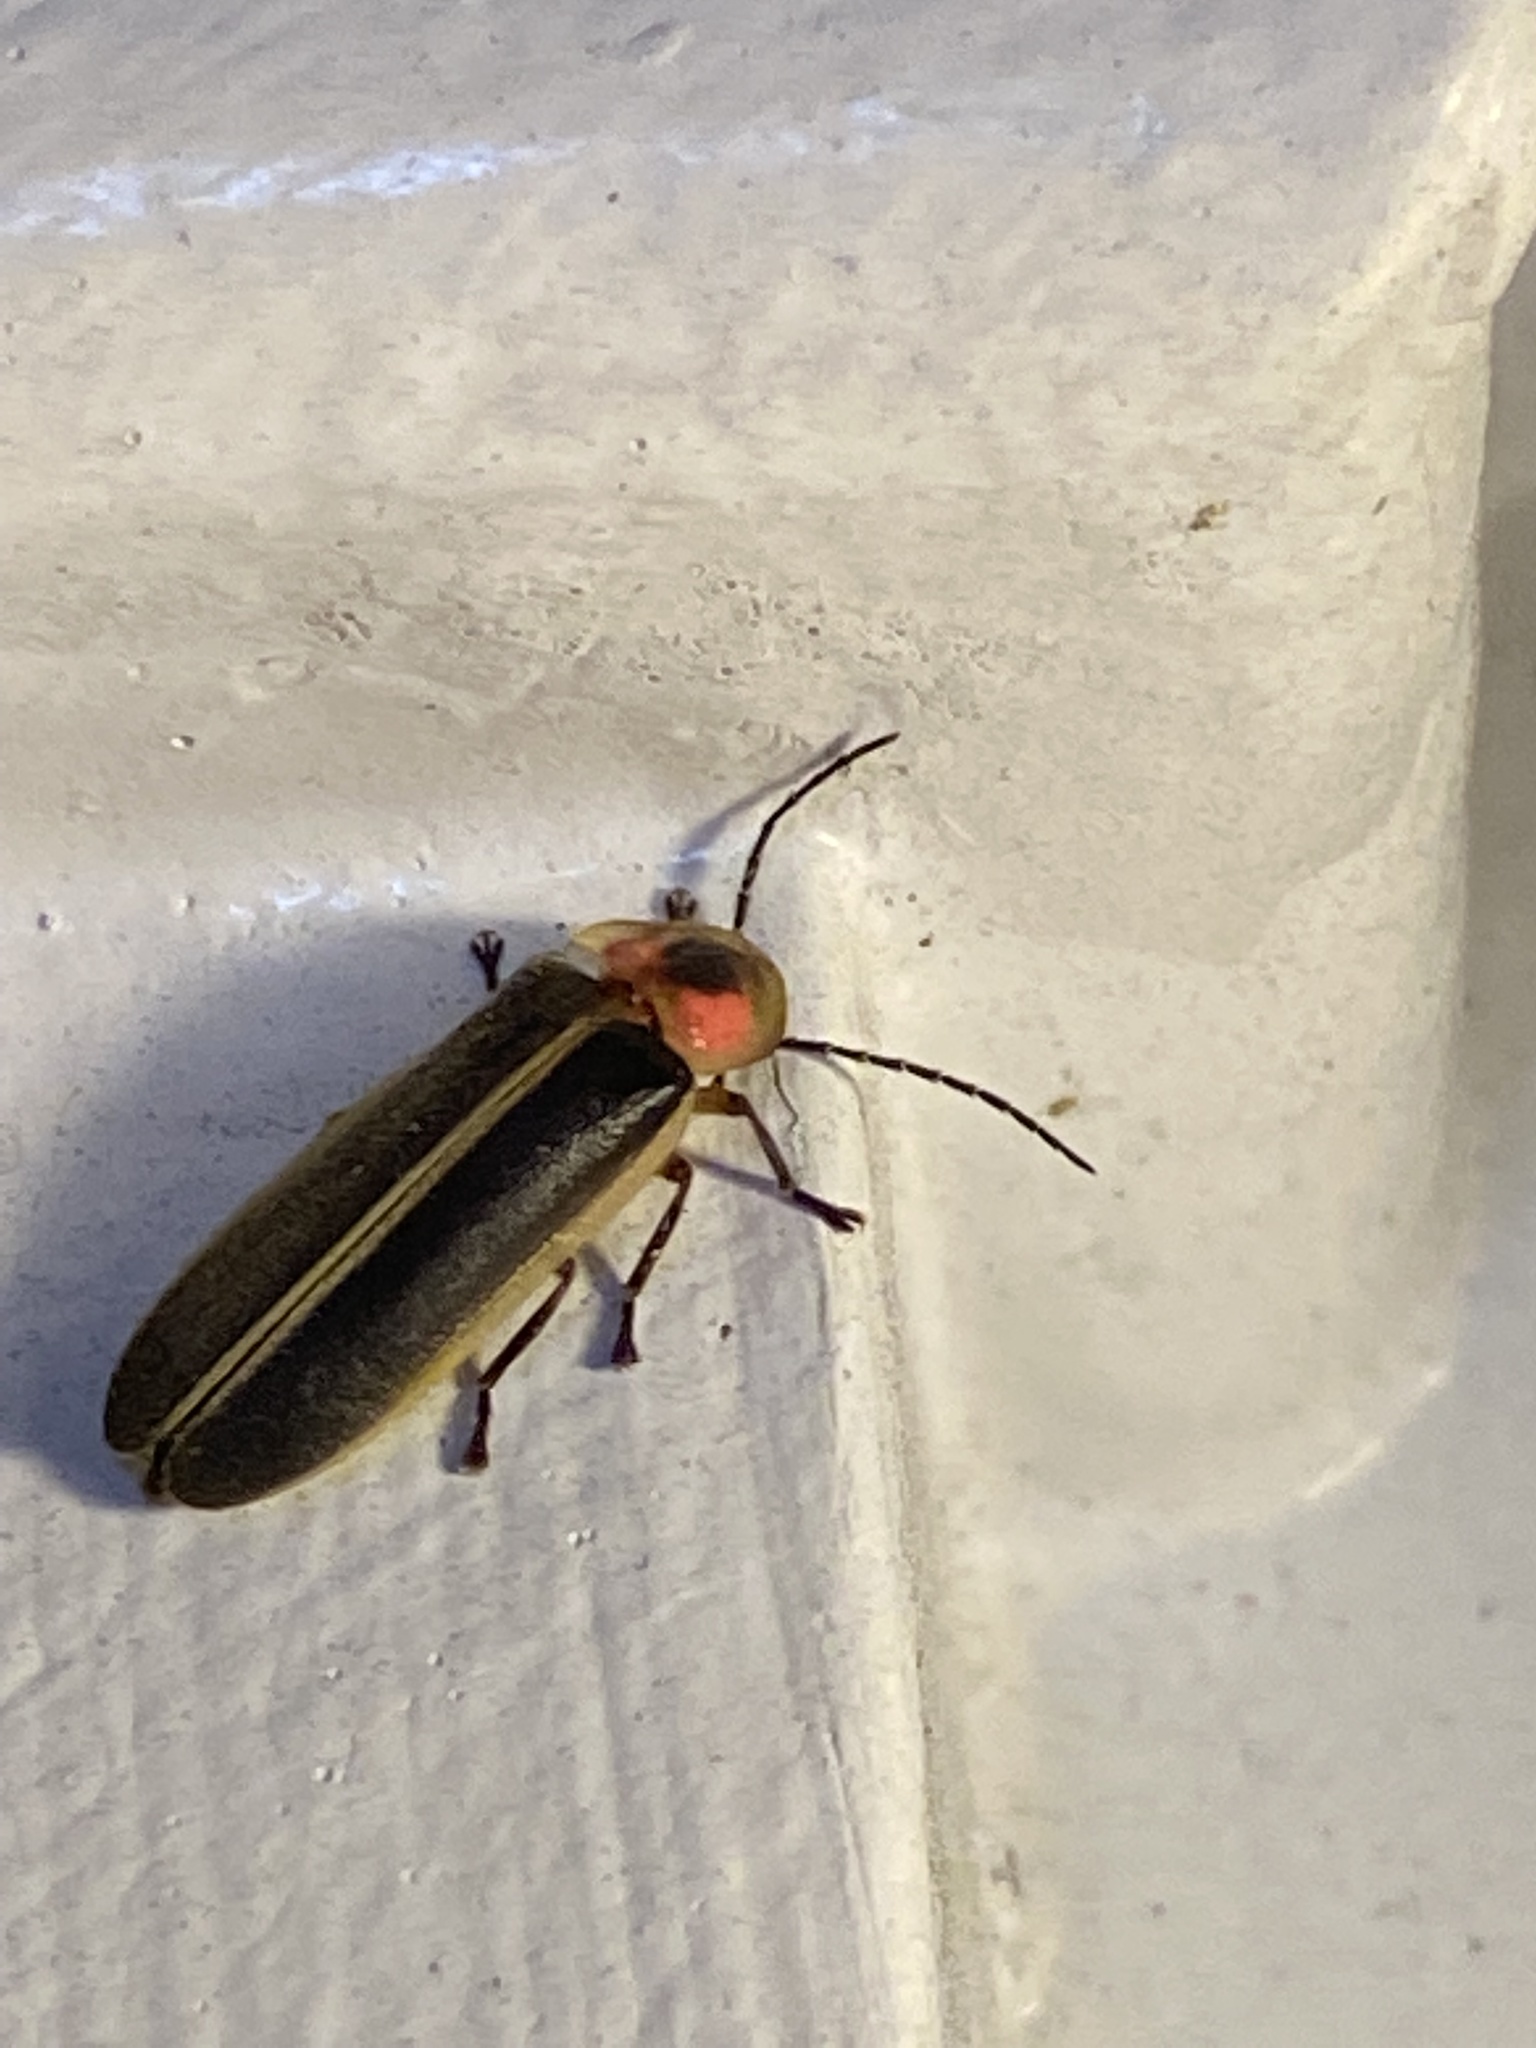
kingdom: Animalia
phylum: Arthropoda
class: Insecta
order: Coleoptera
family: Lampyridae
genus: Photinus
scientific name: Photinus pyralis
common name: Big dipper firefly
